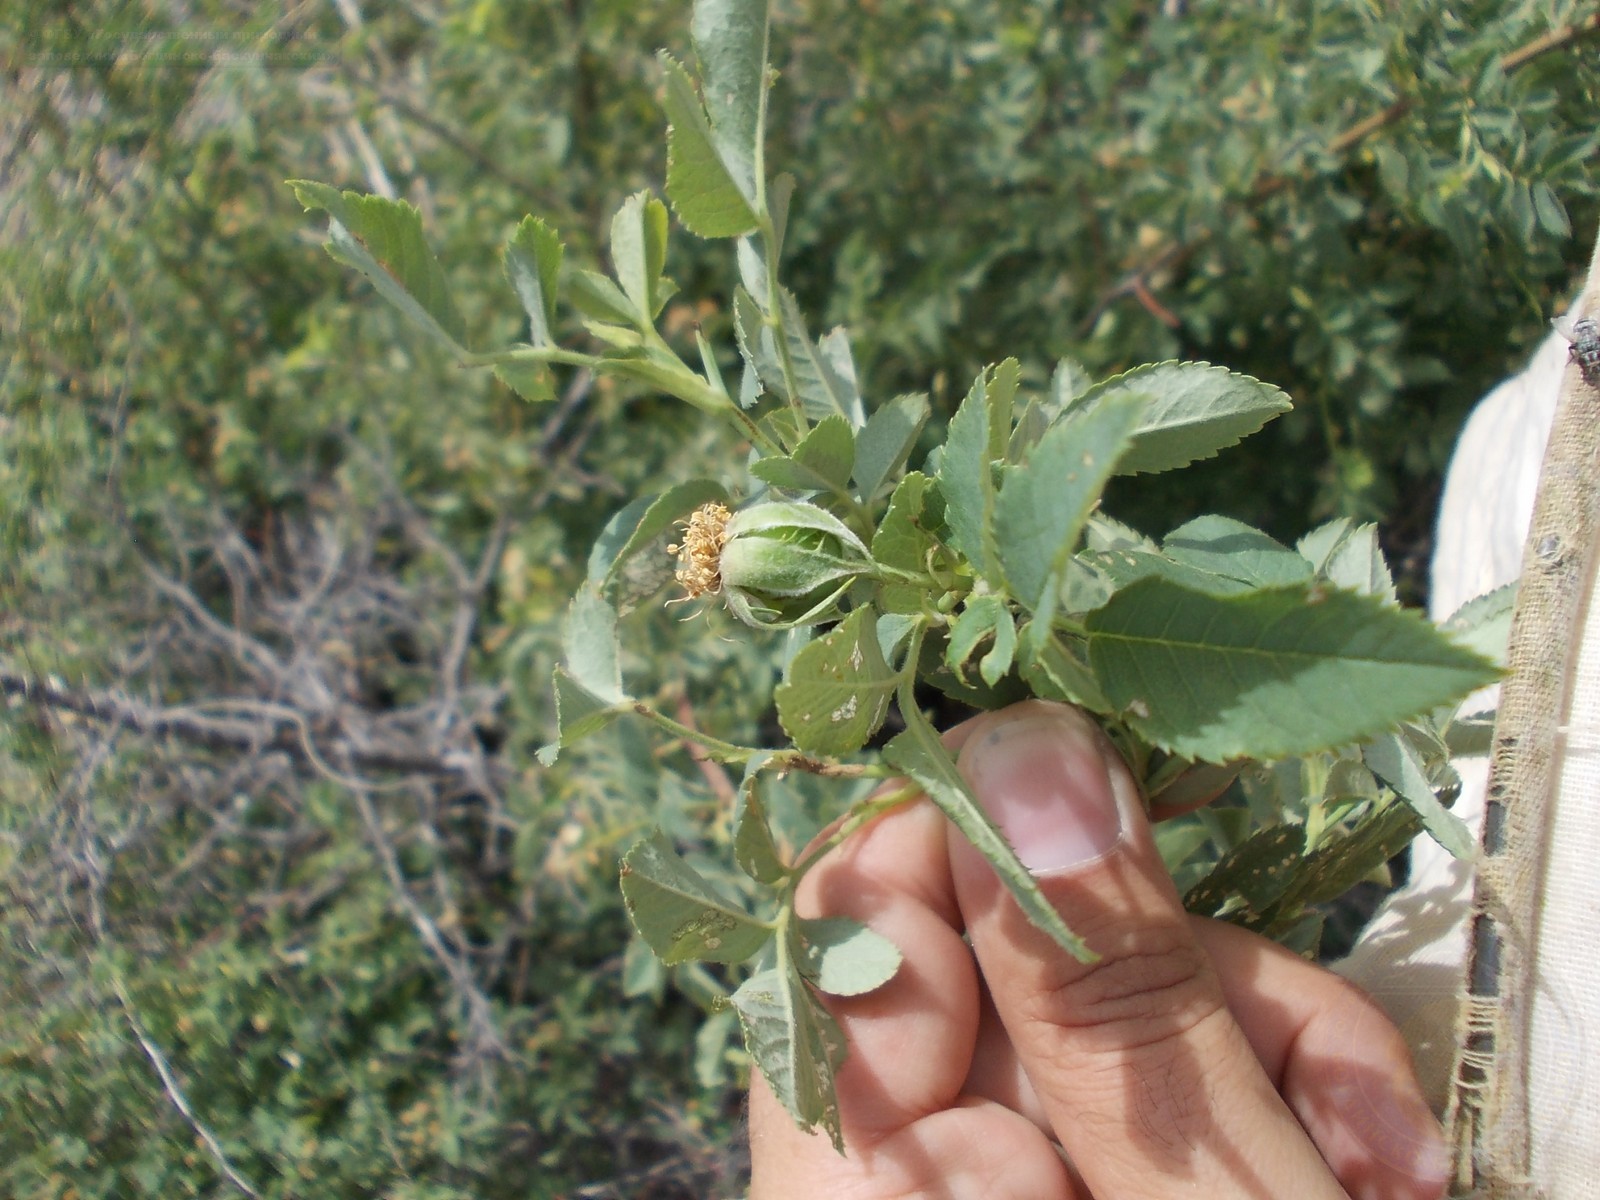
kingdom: Plantae
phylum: Tracheophyta
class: Magnoliopsida
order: Rosales
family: Rosaceae
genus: Rosa
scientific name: Rosa
